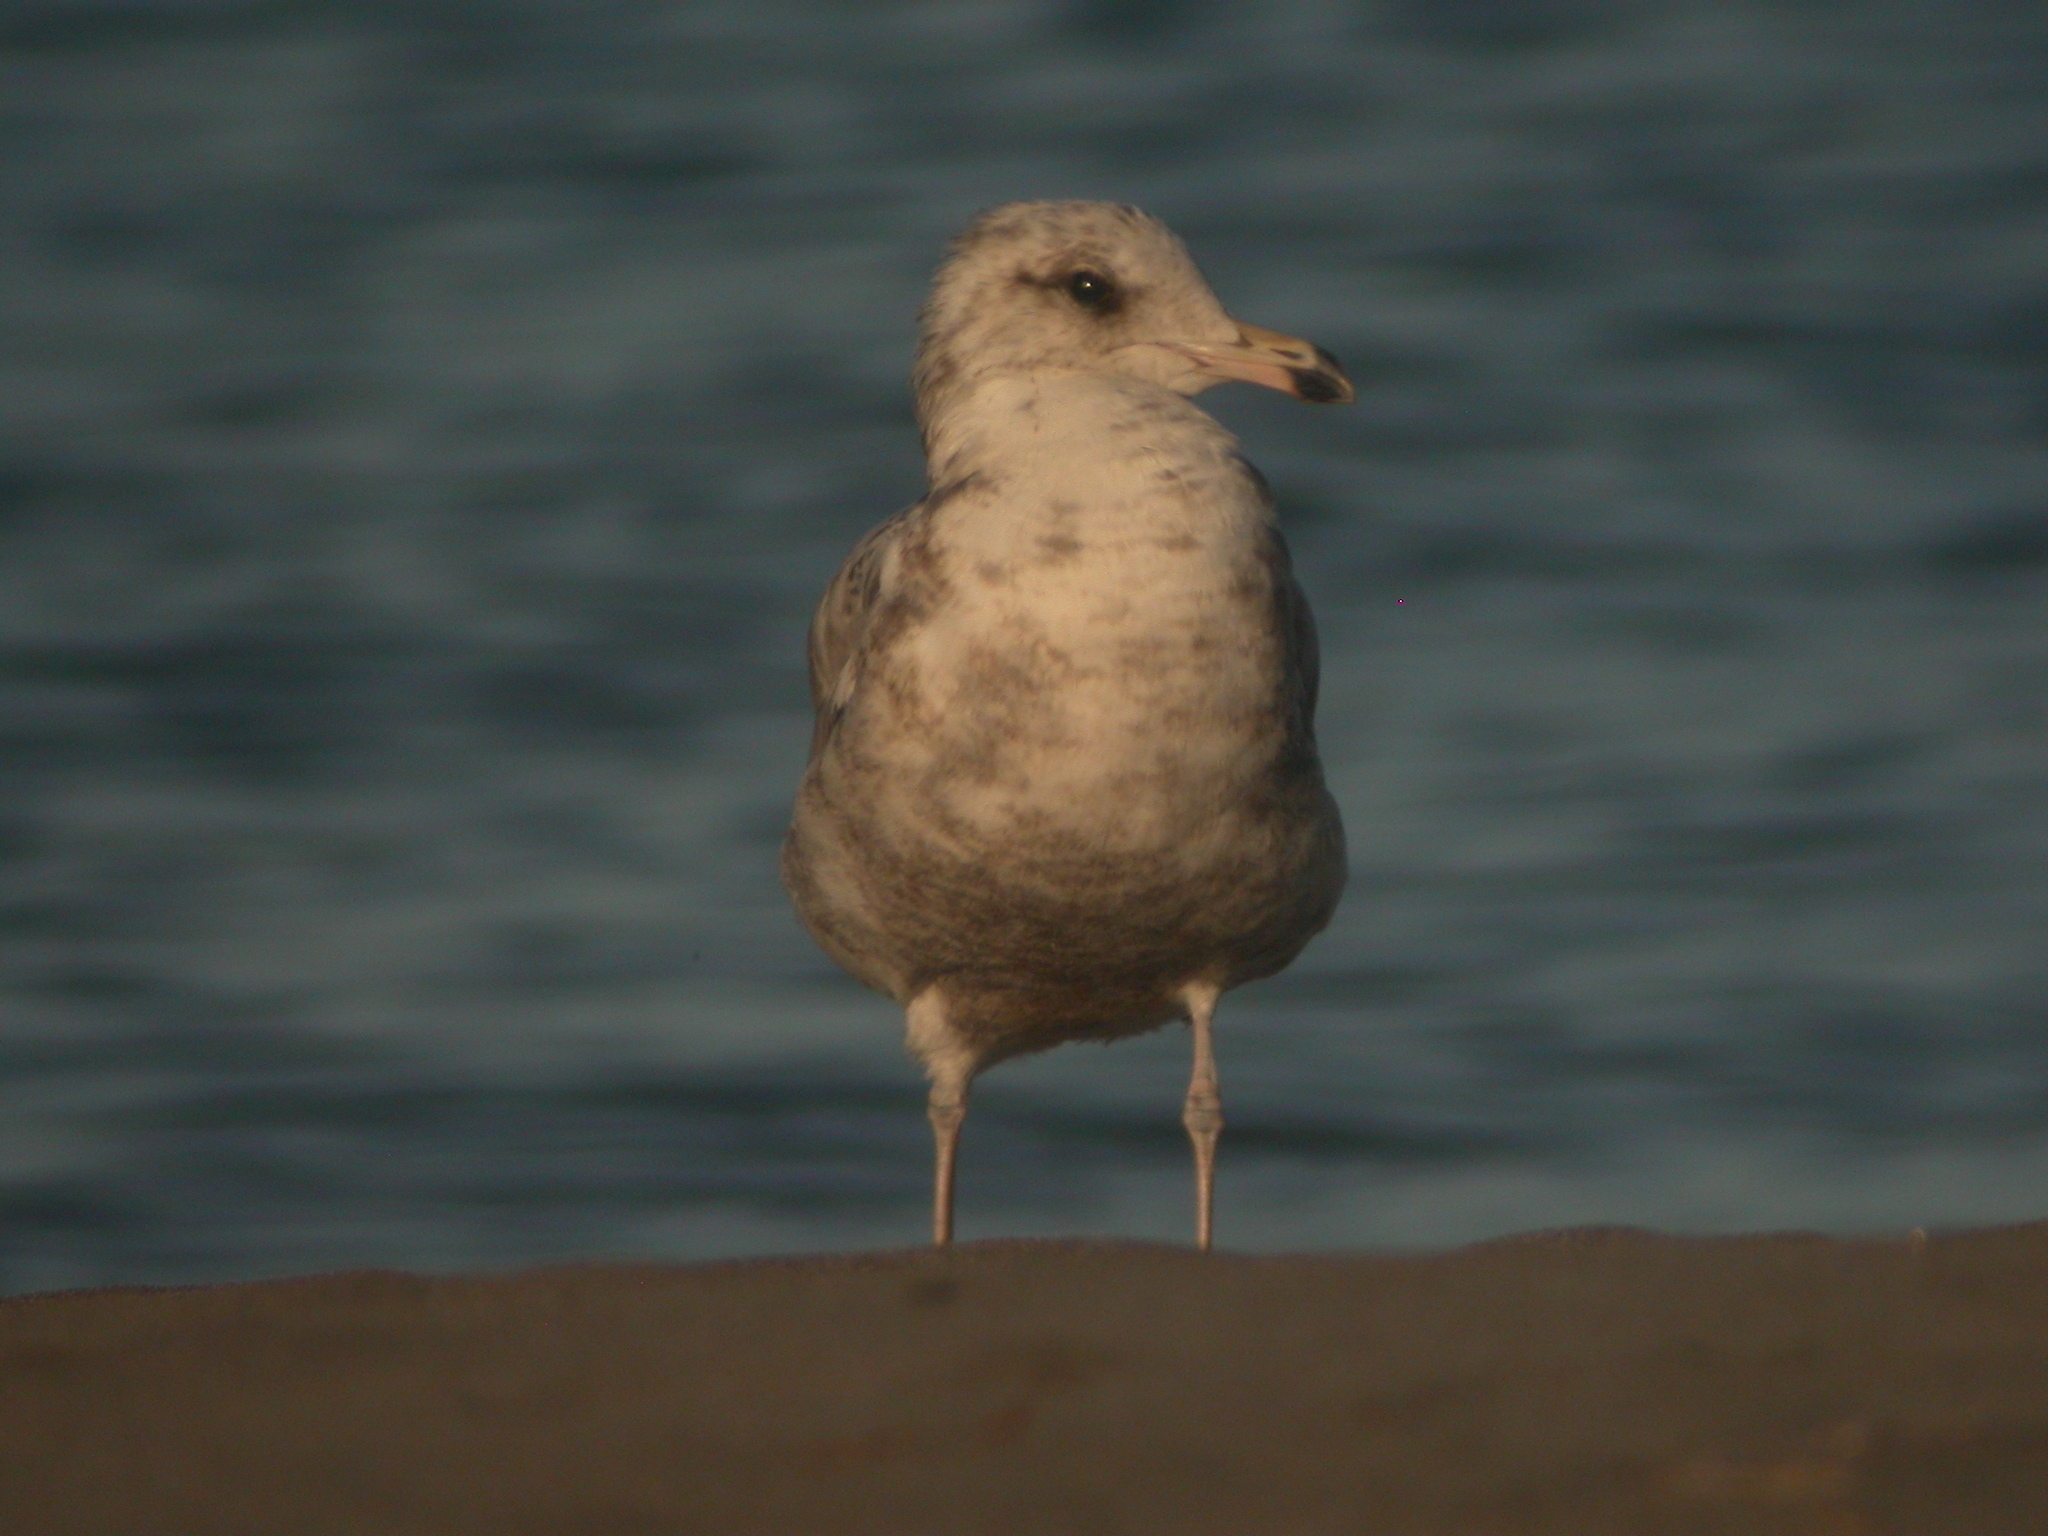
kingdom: Animalia
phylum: Chordata
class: Aves
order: Charadriiformes
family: Laridae
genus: Larus
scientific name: Larus californicus
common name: California gull
